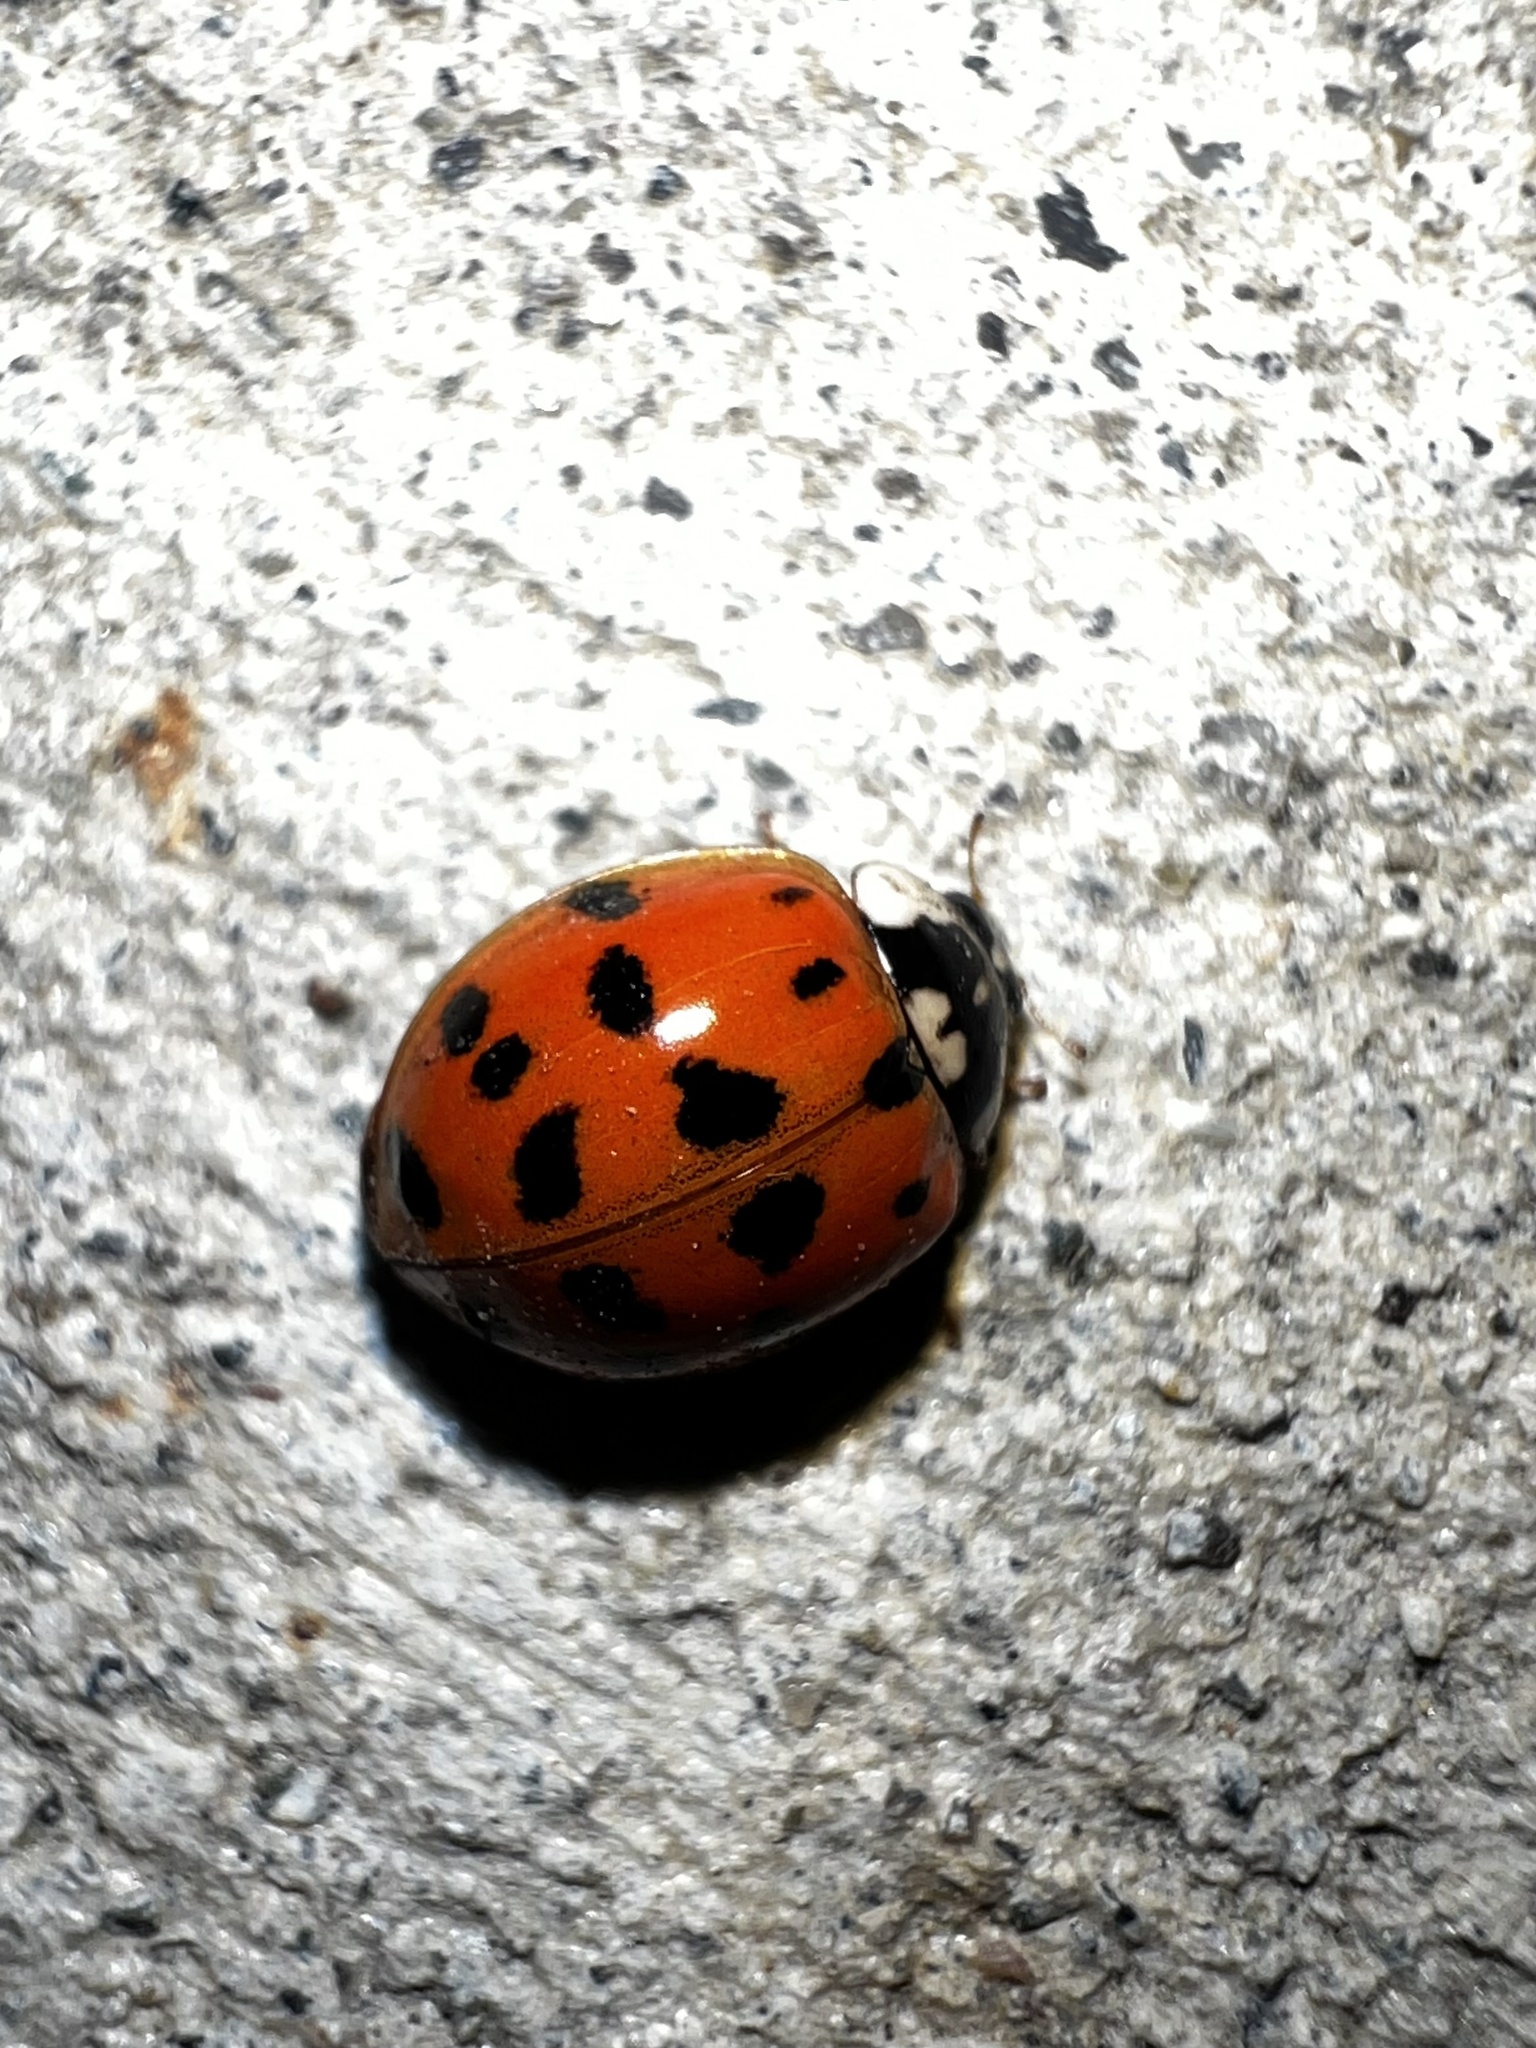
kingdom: Animalia
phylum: Arthropoda
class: Insecta
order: Coleoptera
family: Coccinellidae
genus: Harmonia
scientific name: Harmonia axyridis
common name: Harlequin ladybird
